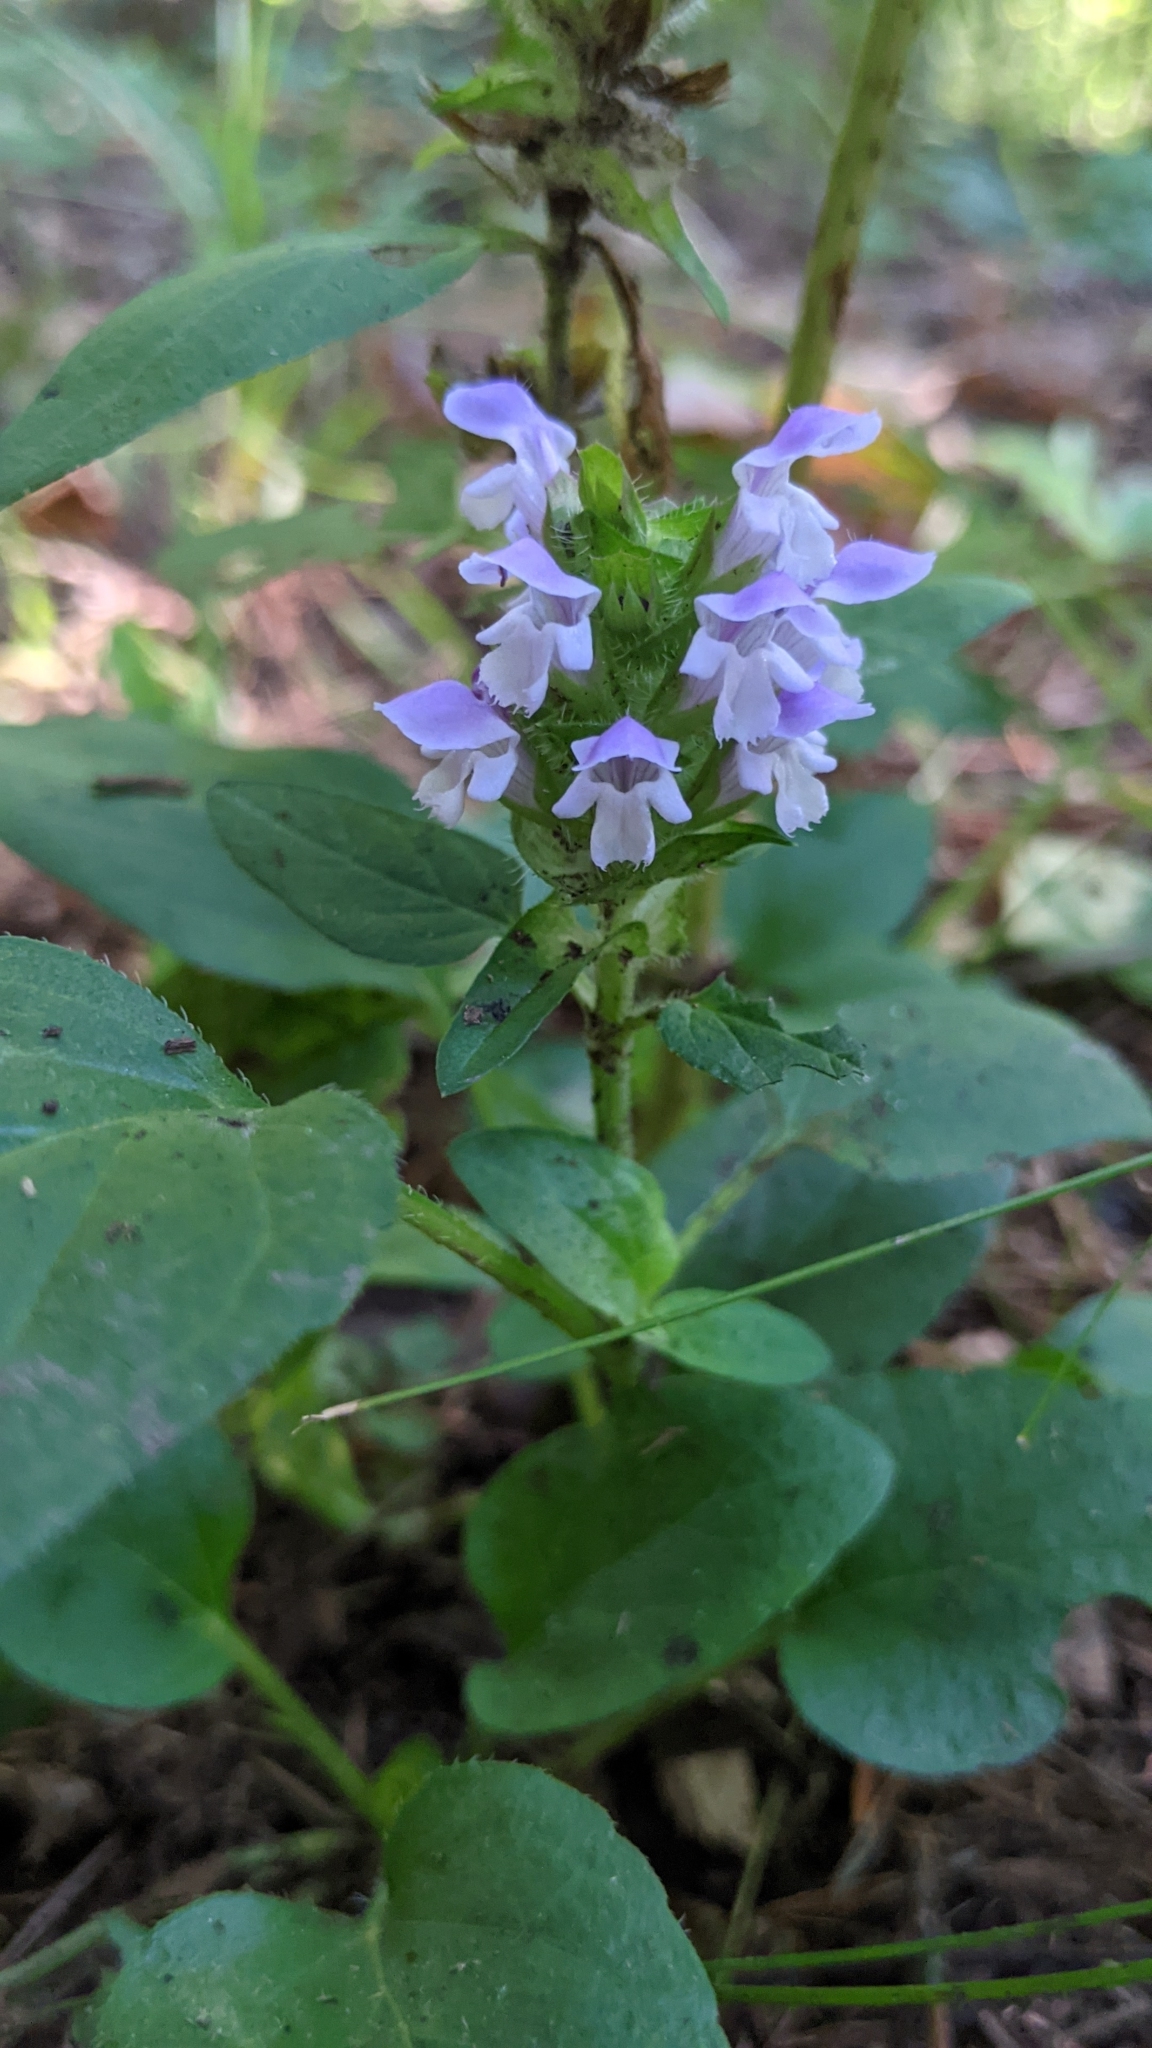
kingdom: Plantae
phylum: Tracheophyta
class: Magnoliopsida
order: Lamiales
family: Lamiaceae
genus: Prunella
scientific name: Prunella vulgaris
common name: Heal-all
